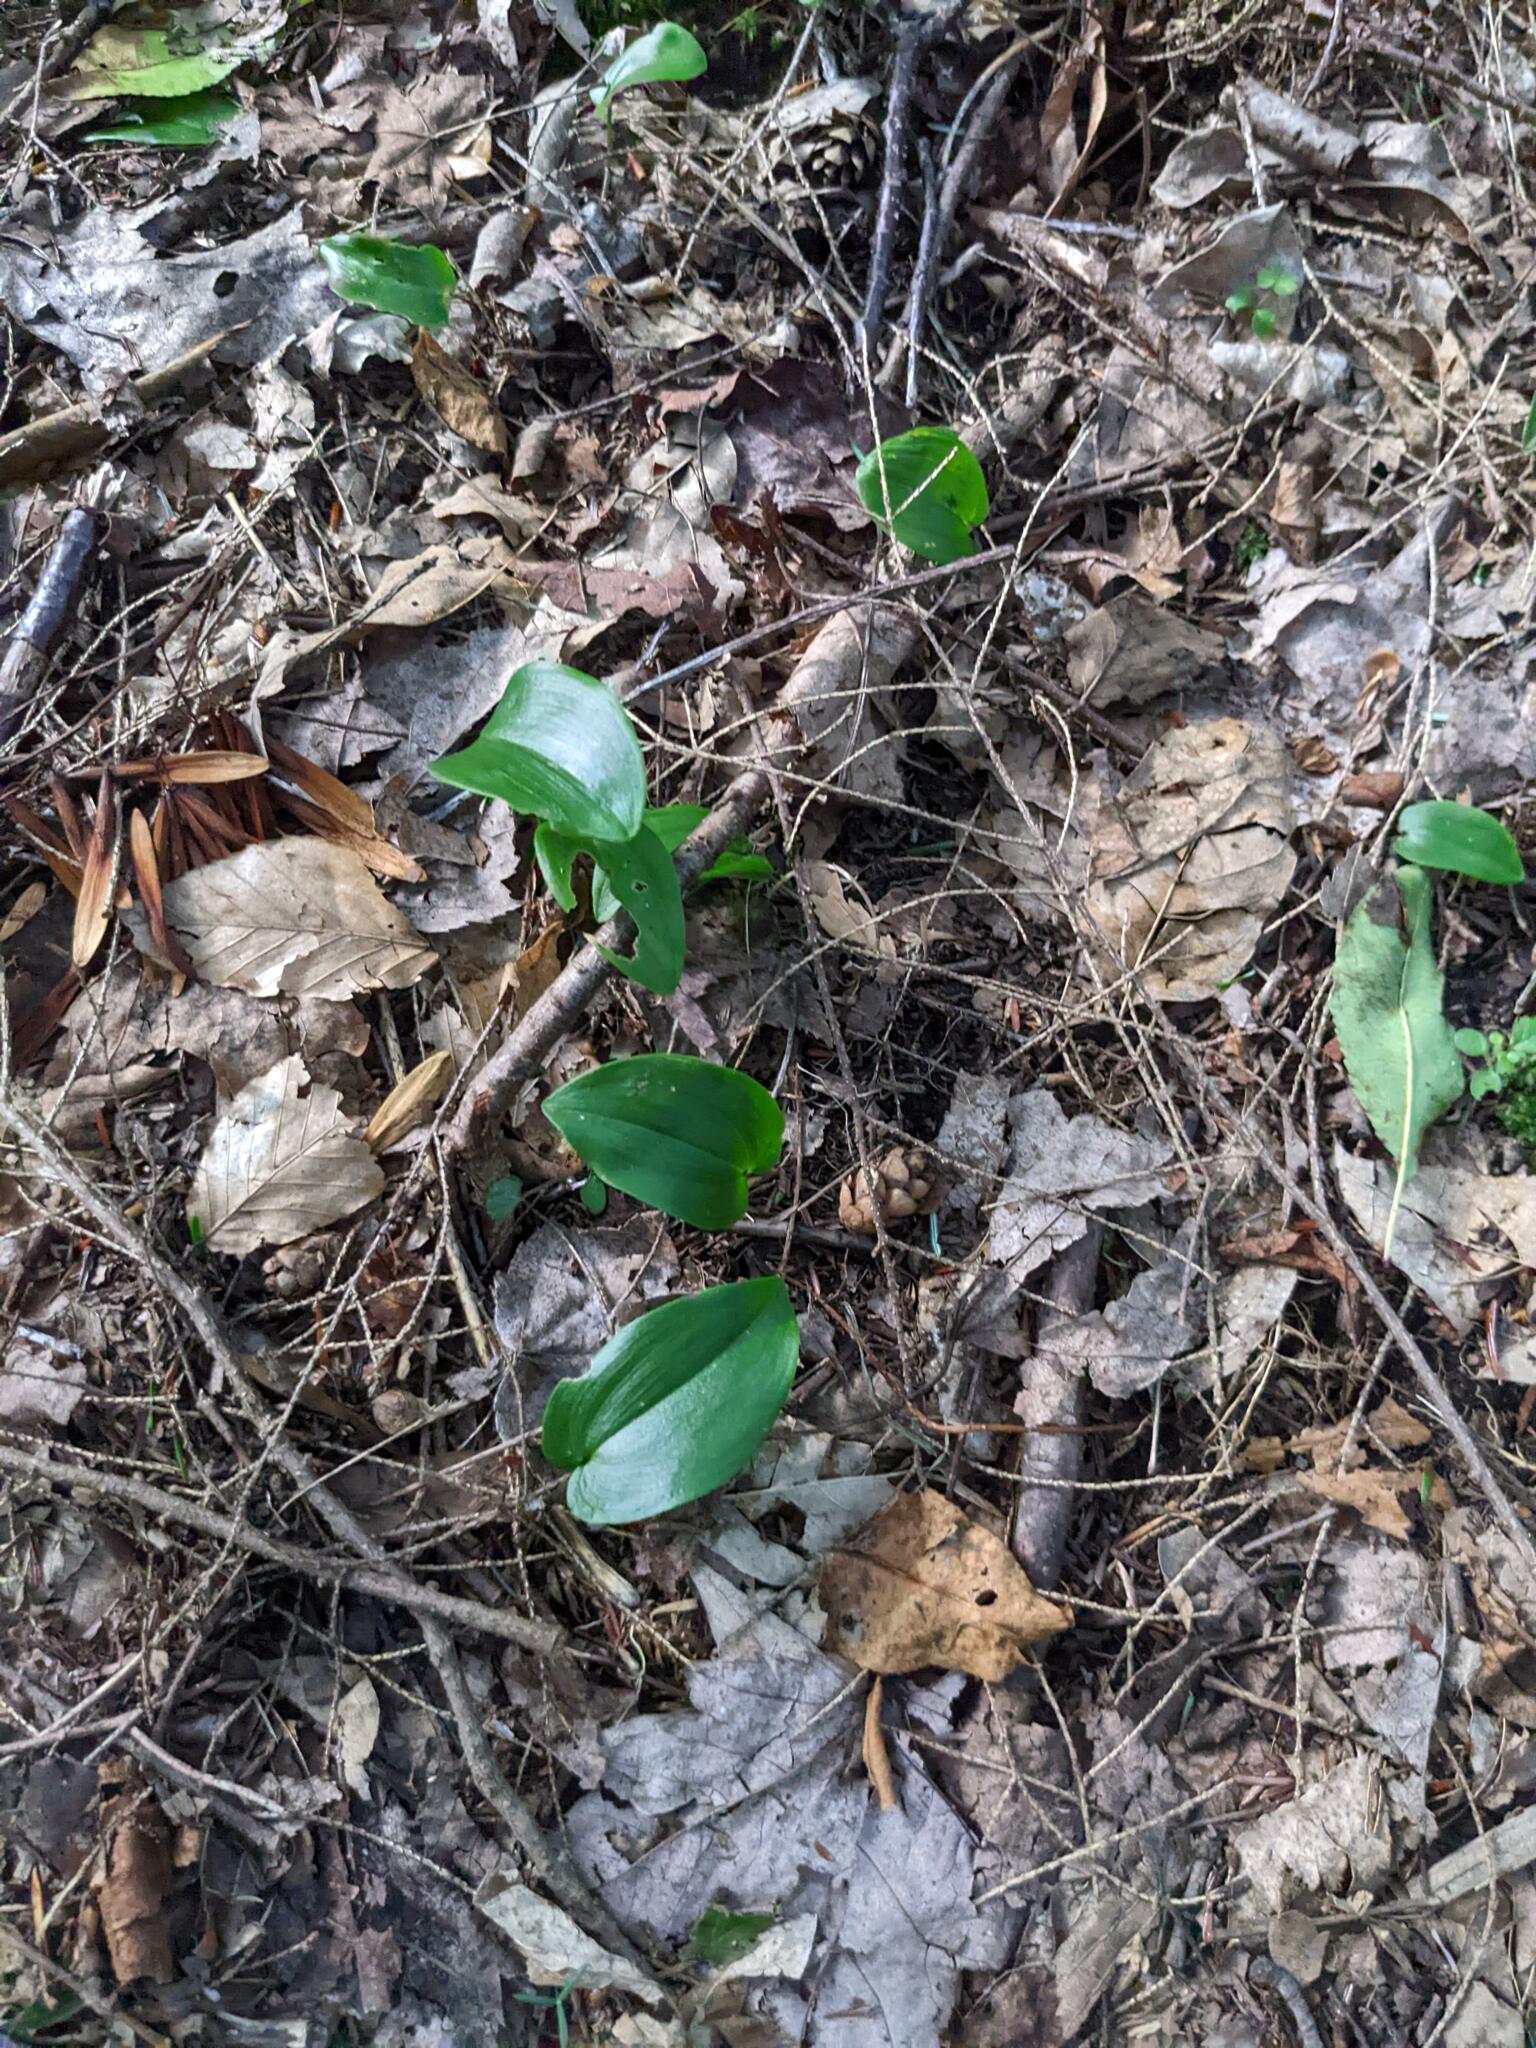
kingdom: Plantae
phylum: Tracheophyta
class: Liliopsida
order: Asparagales
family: Asparagaceae
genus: Maianthemum
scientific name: Maianthemum canadense
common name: False lily-of-the-valley
